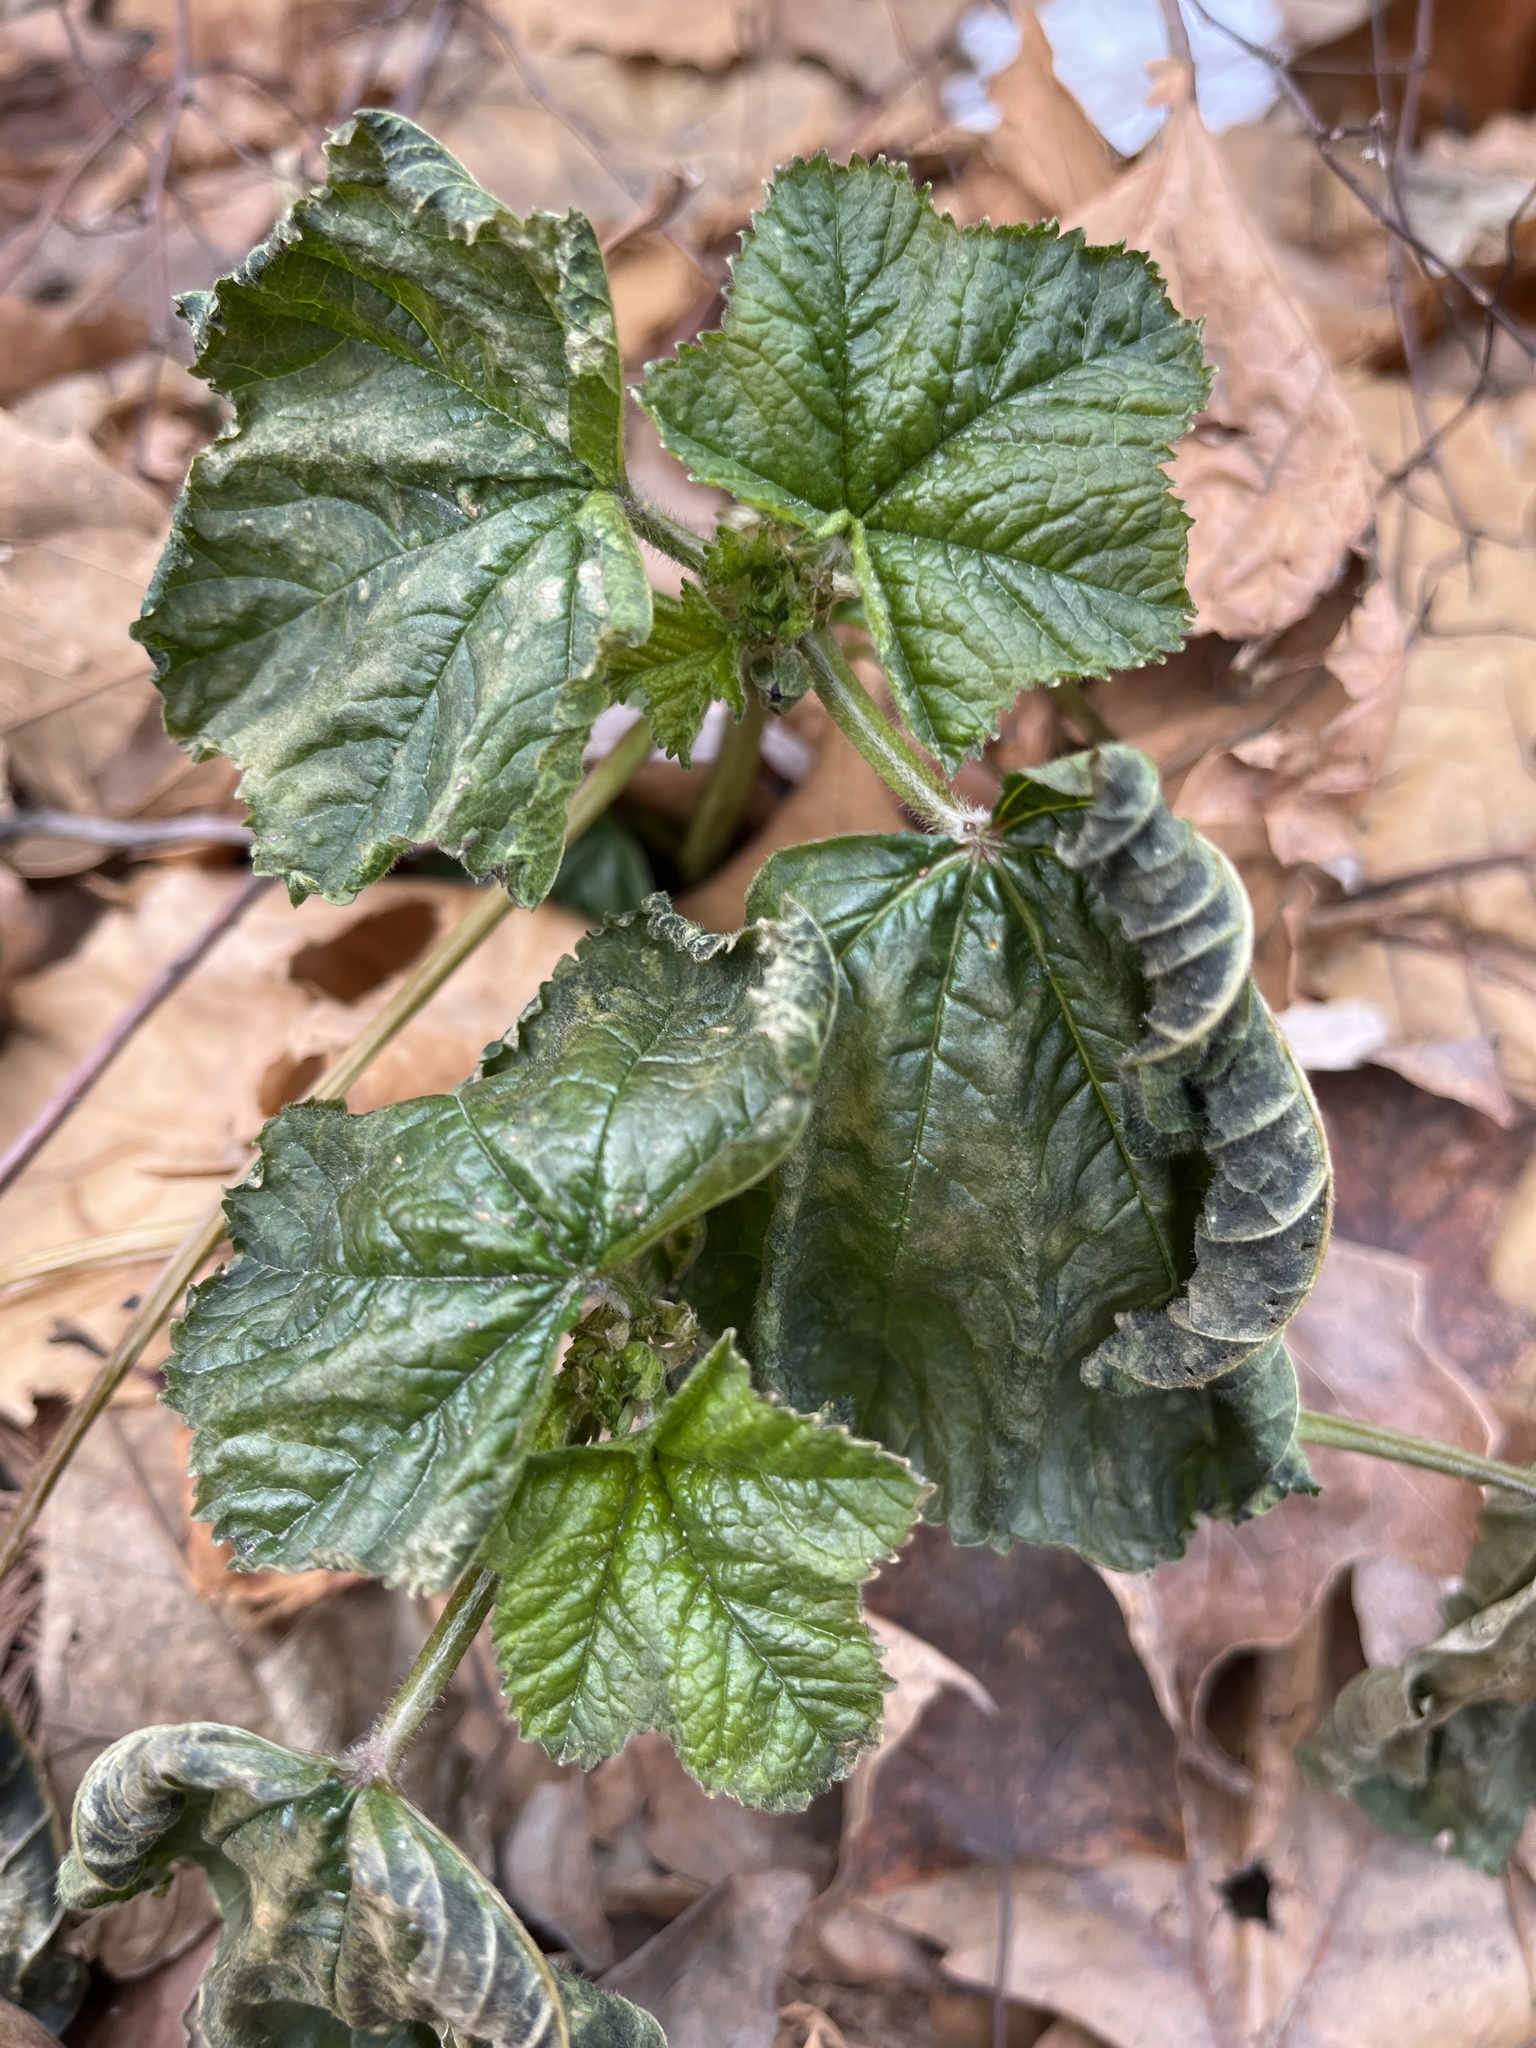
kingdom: Plantae
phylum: Tracheophyta
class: Magnoliopsida
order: Malvales
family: Malvaceae
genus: Malva
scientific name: Malva neglecta
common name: Common mallow
